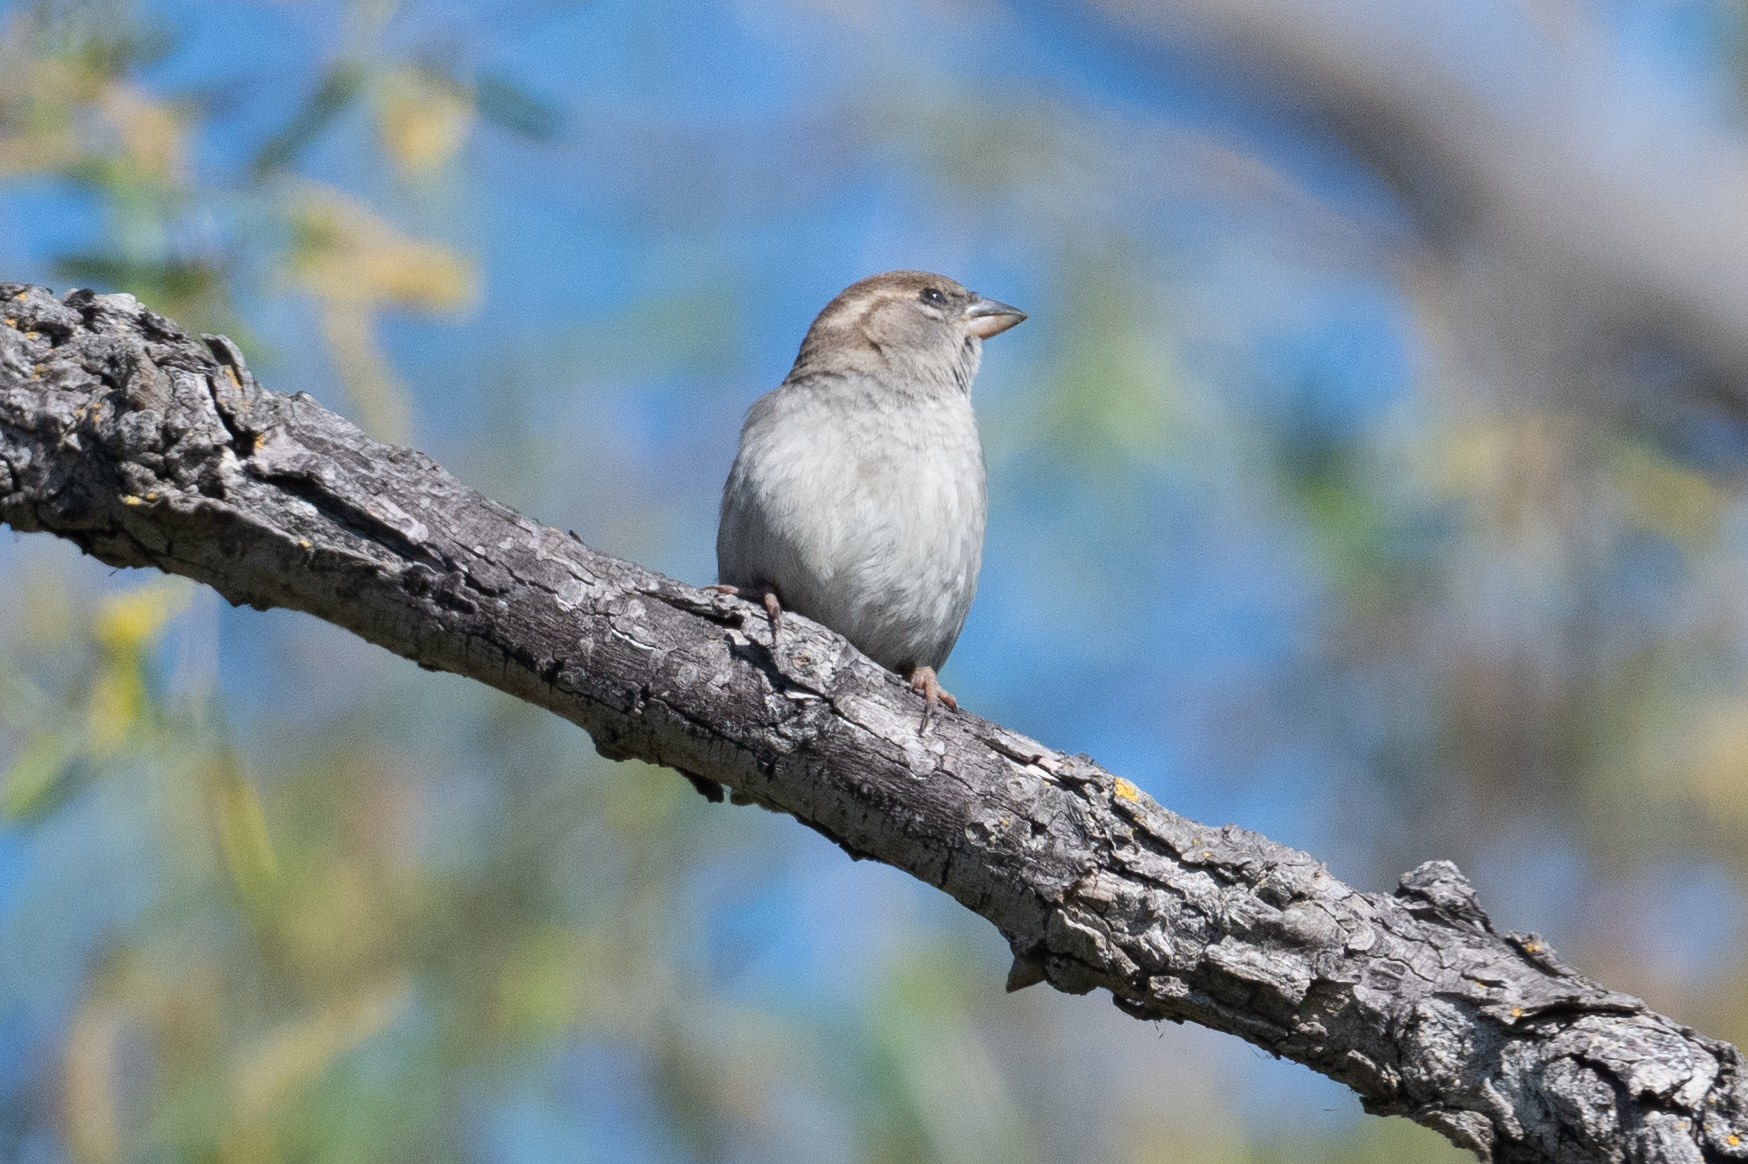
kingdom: Animalia
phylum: Chordata
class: Aves
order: Passeriformes
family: Passeridae
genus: Passer
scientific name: Passer domesticus
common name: House sparrow
